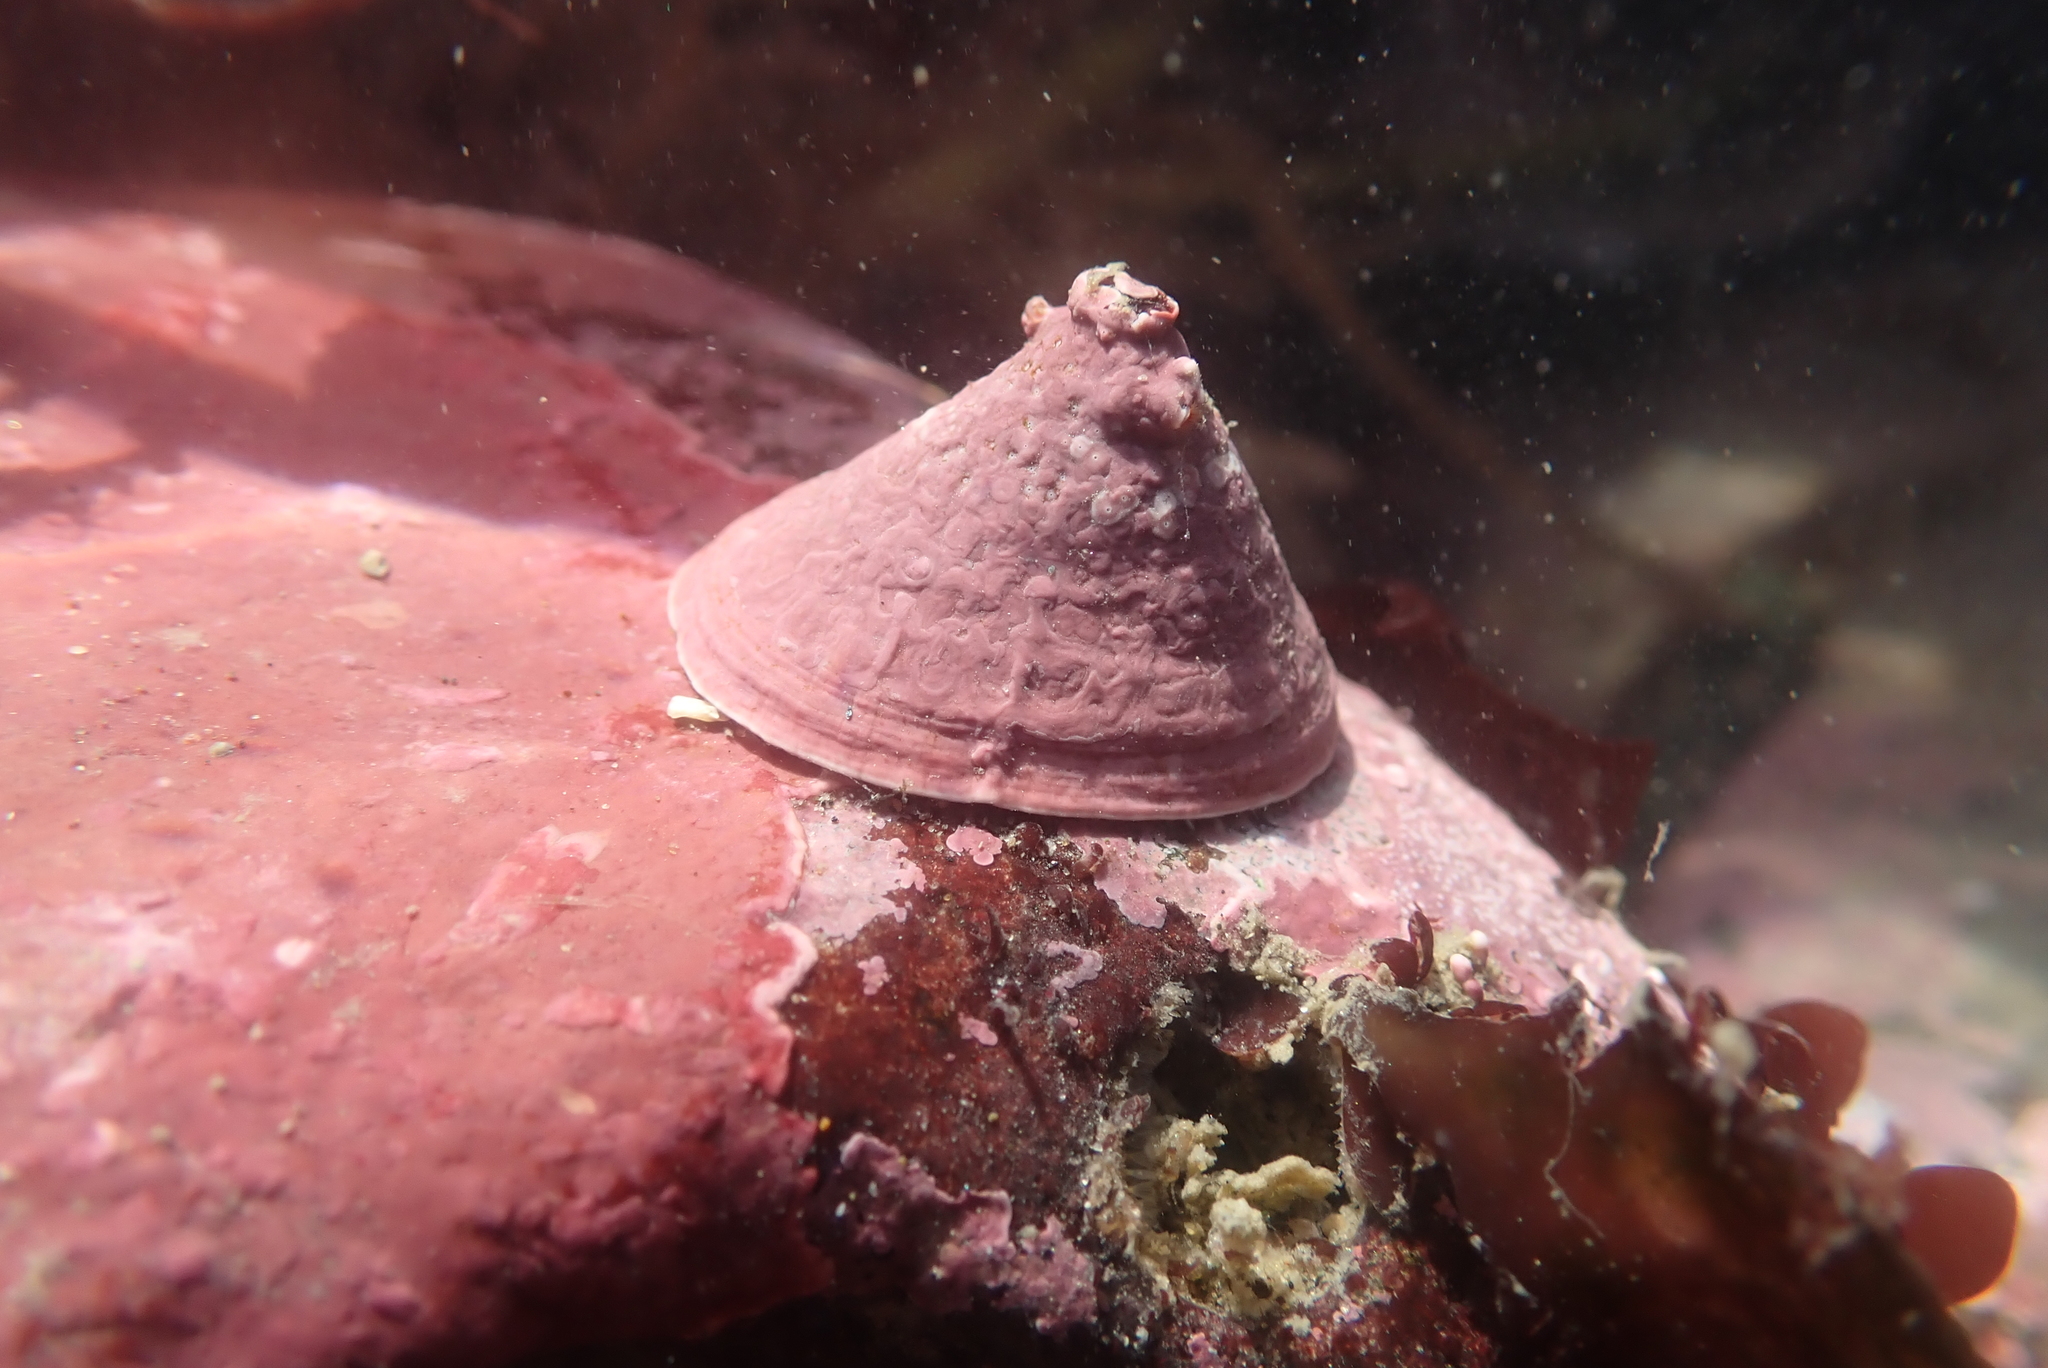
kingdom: Animalia
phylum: Mollusca
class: Gastropoda
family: Acmaeidae
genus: Acmaea
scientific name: Acmaea mitra
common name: Pacific white cap limpet
